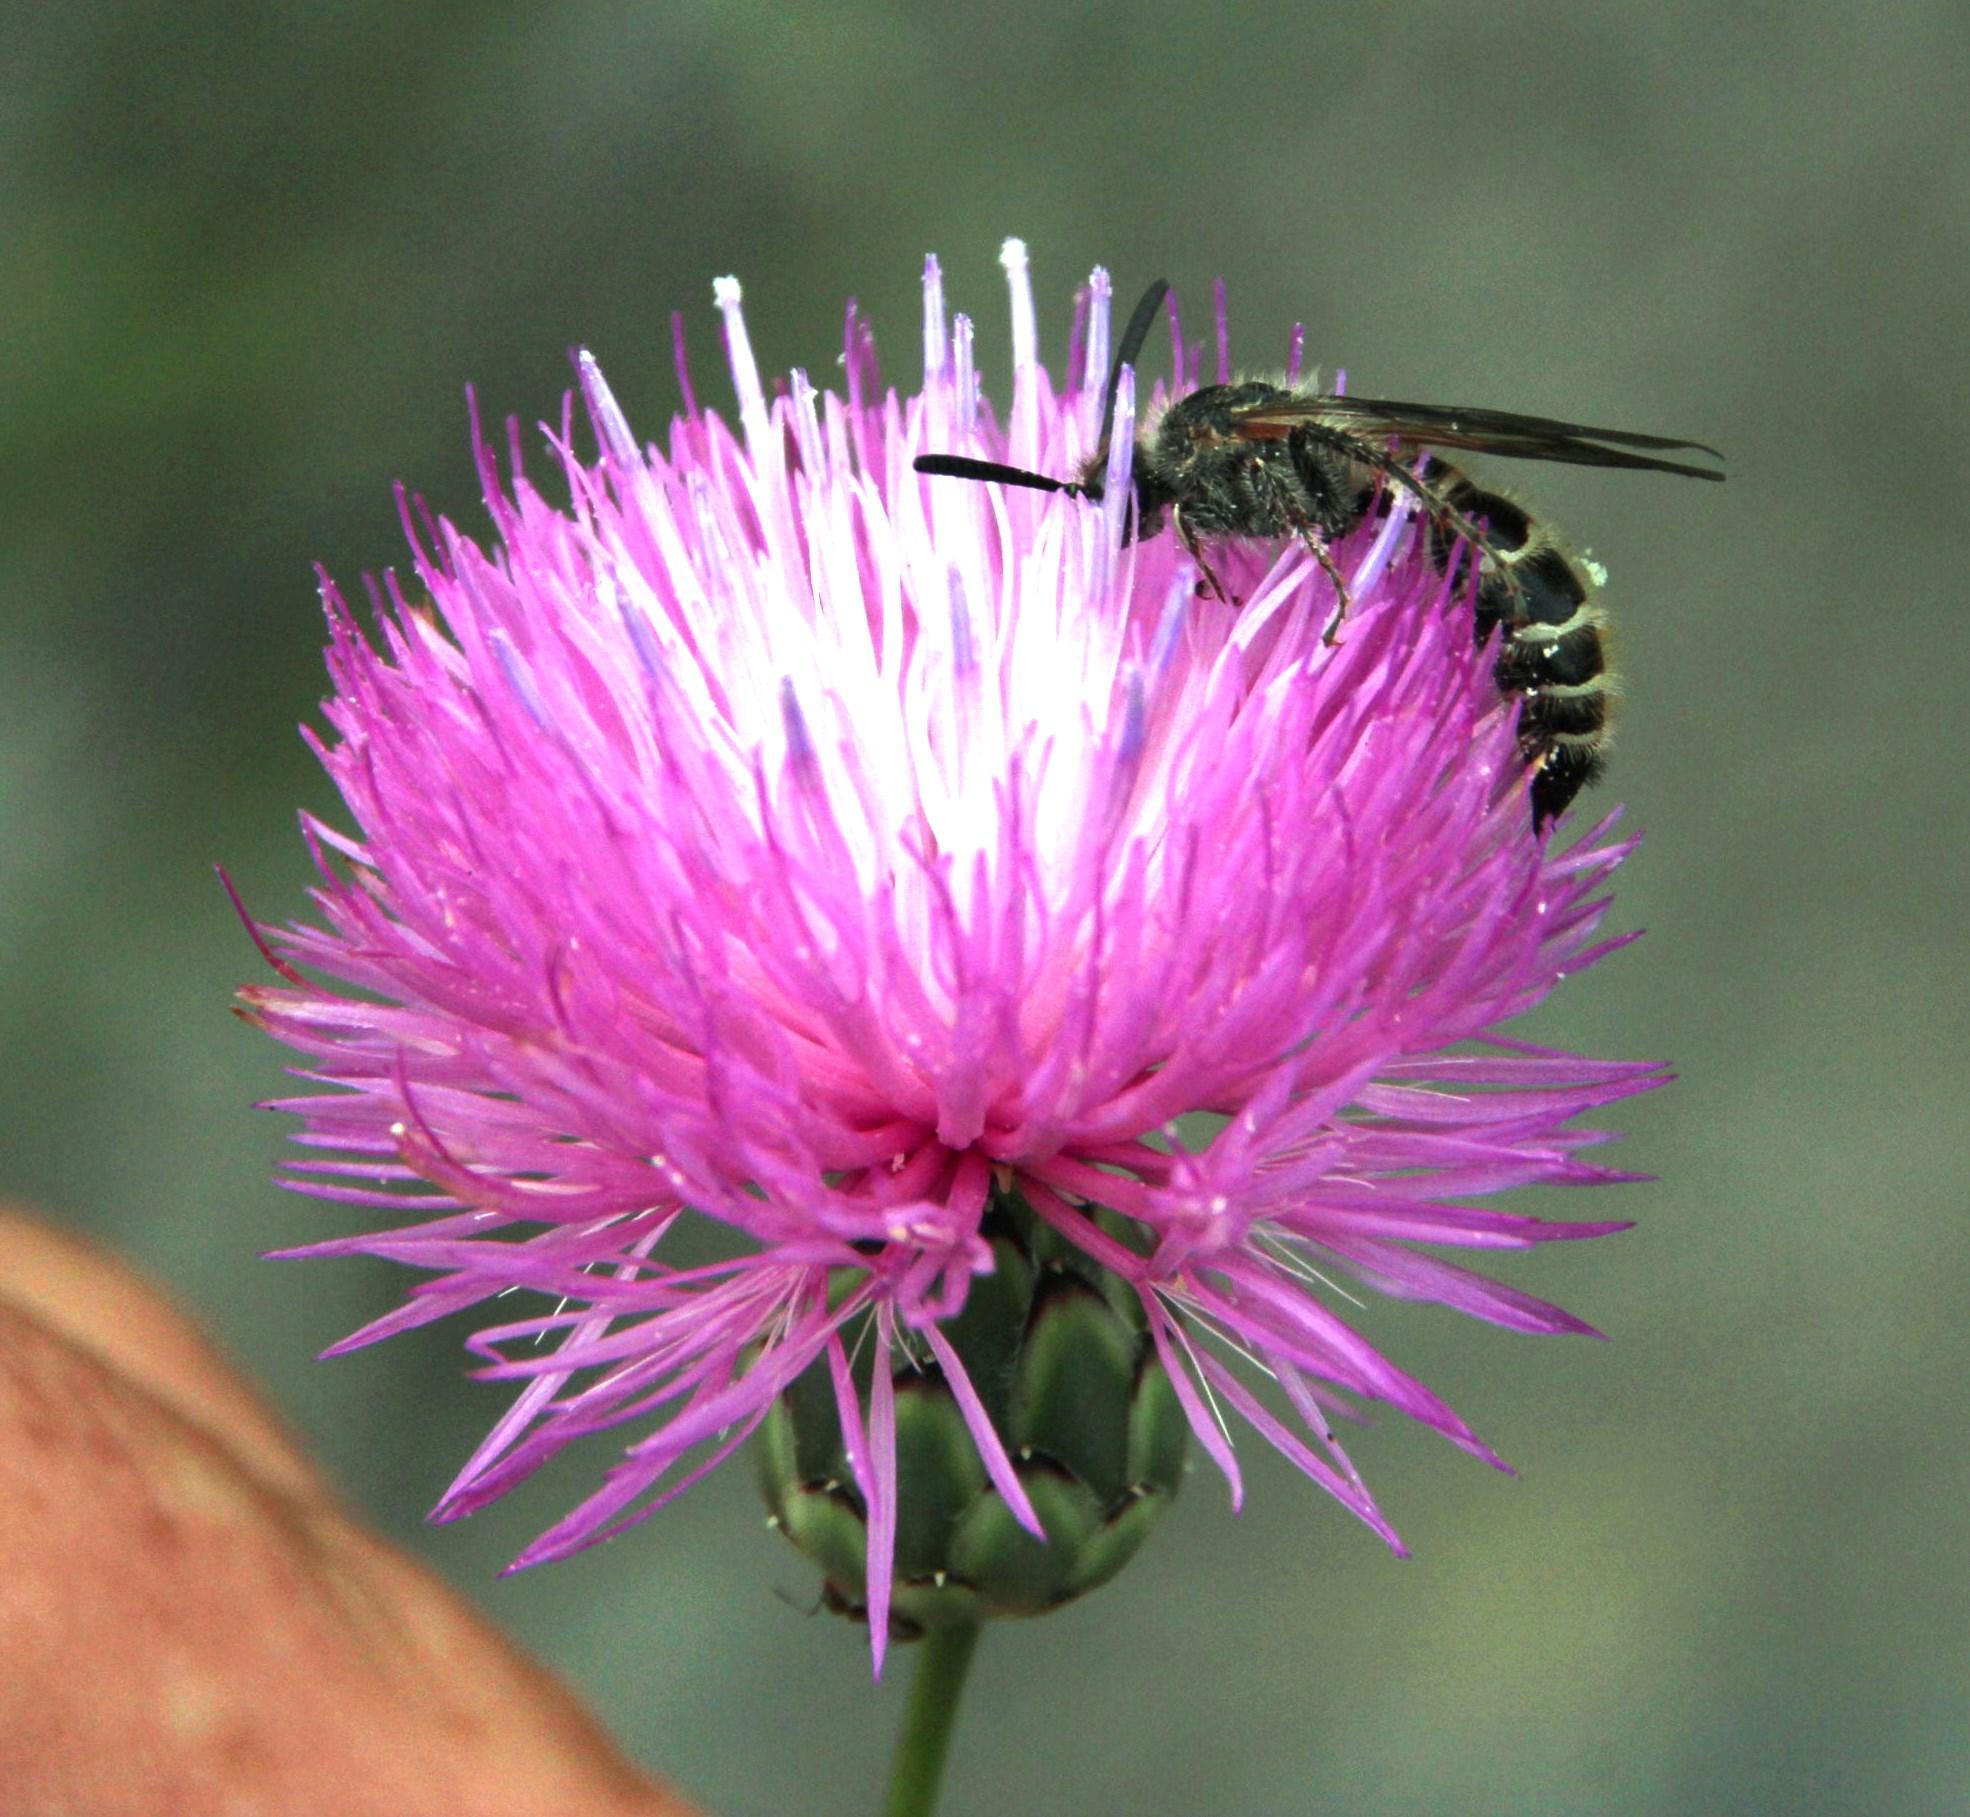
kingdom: Plantae
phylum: Tracheophyta
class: Magnoliopsida
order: Asterales
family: Asteraceae
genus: Mantisalca
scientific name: Mantisalca salmantica
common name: Dagger flower
